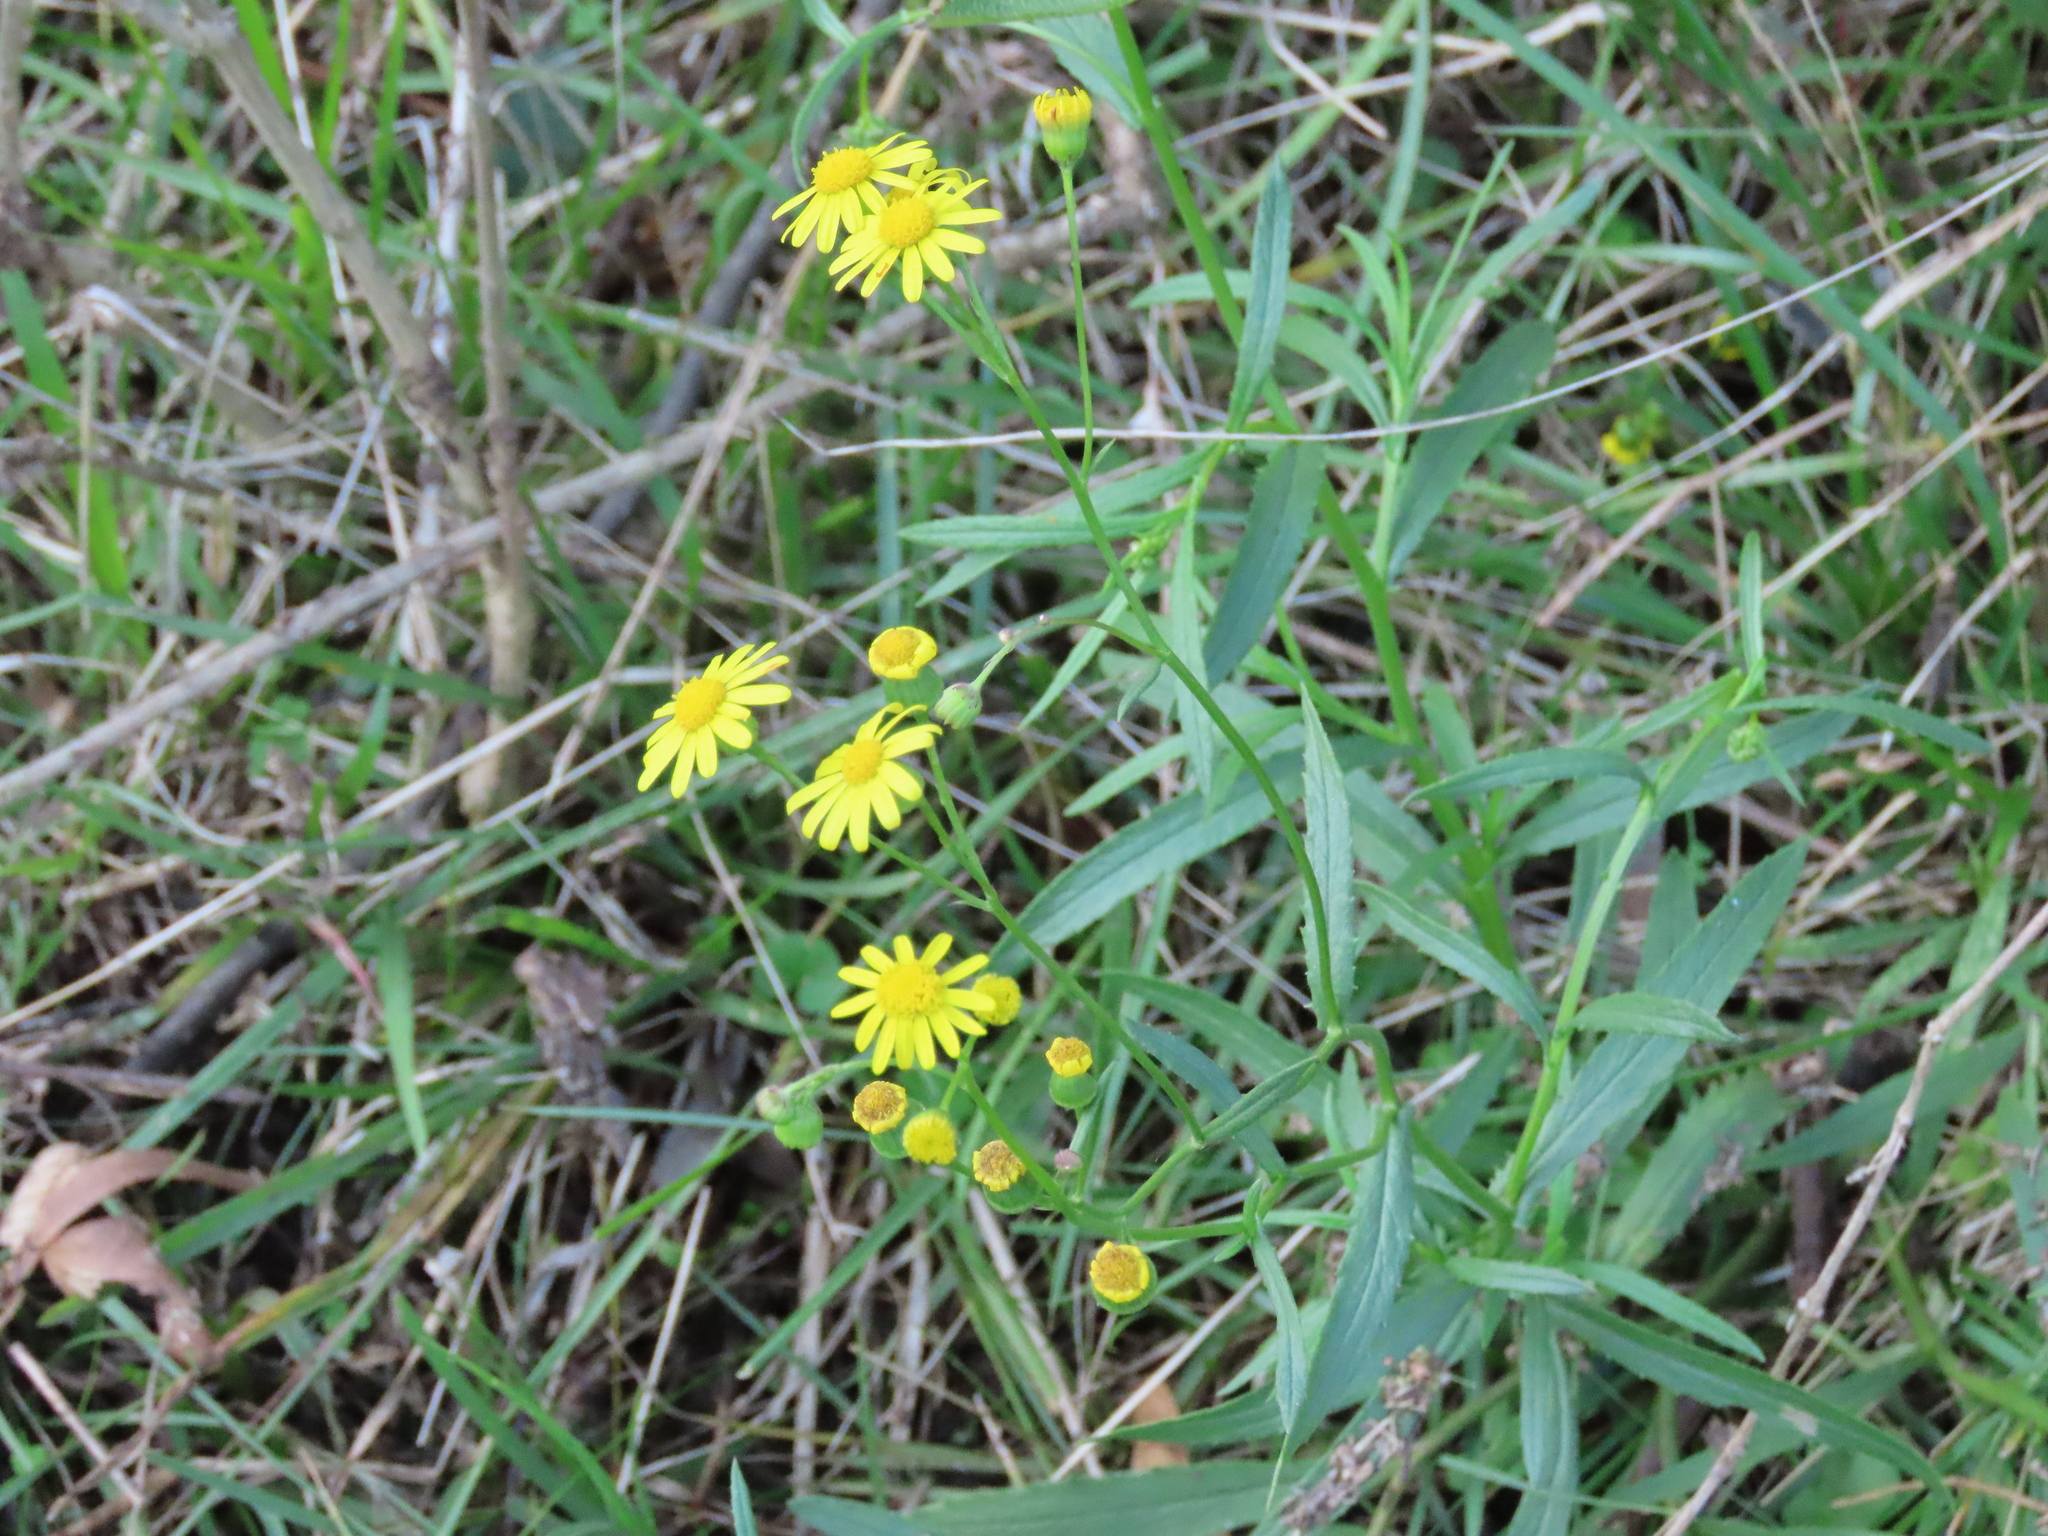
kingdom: Plantae
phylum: Tracheophyta
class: Magnoliopsida
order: Asterales
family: Asteraceae
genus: Senecio
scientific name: Senecio madagascariensis
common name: Madagascar ragwort
